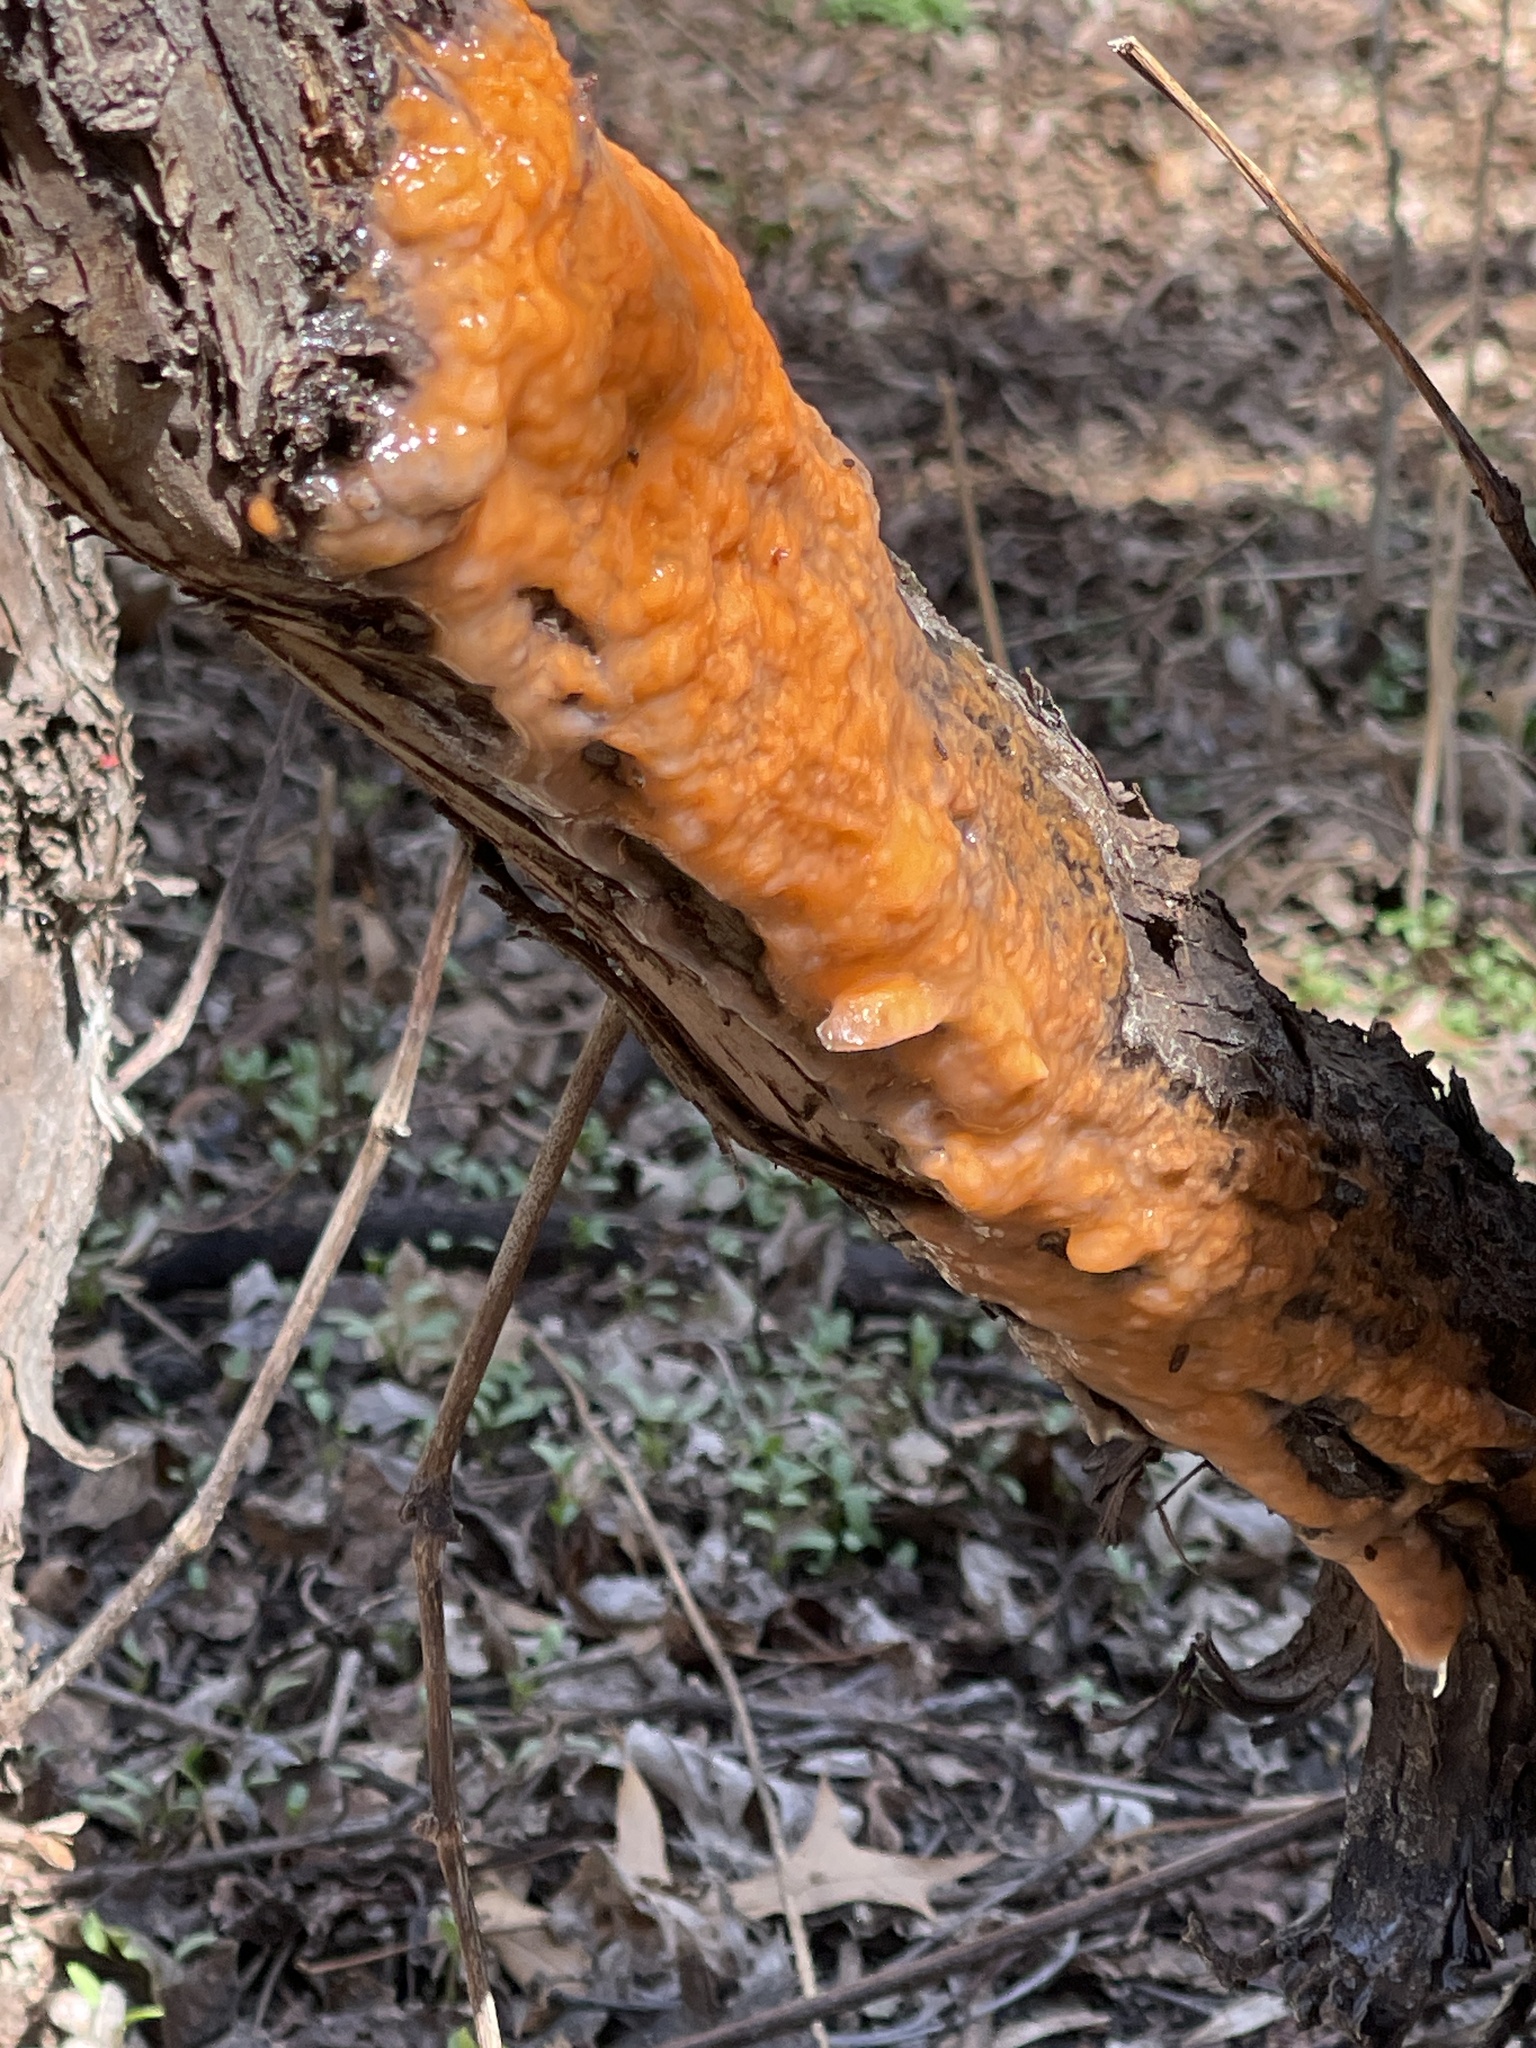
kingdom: Fungi
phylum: Ascomycota
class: Sordariomycetes
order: Hypocreales
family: Nectriaceae
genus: Fusicolla
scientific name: Fusicolla merismoides
